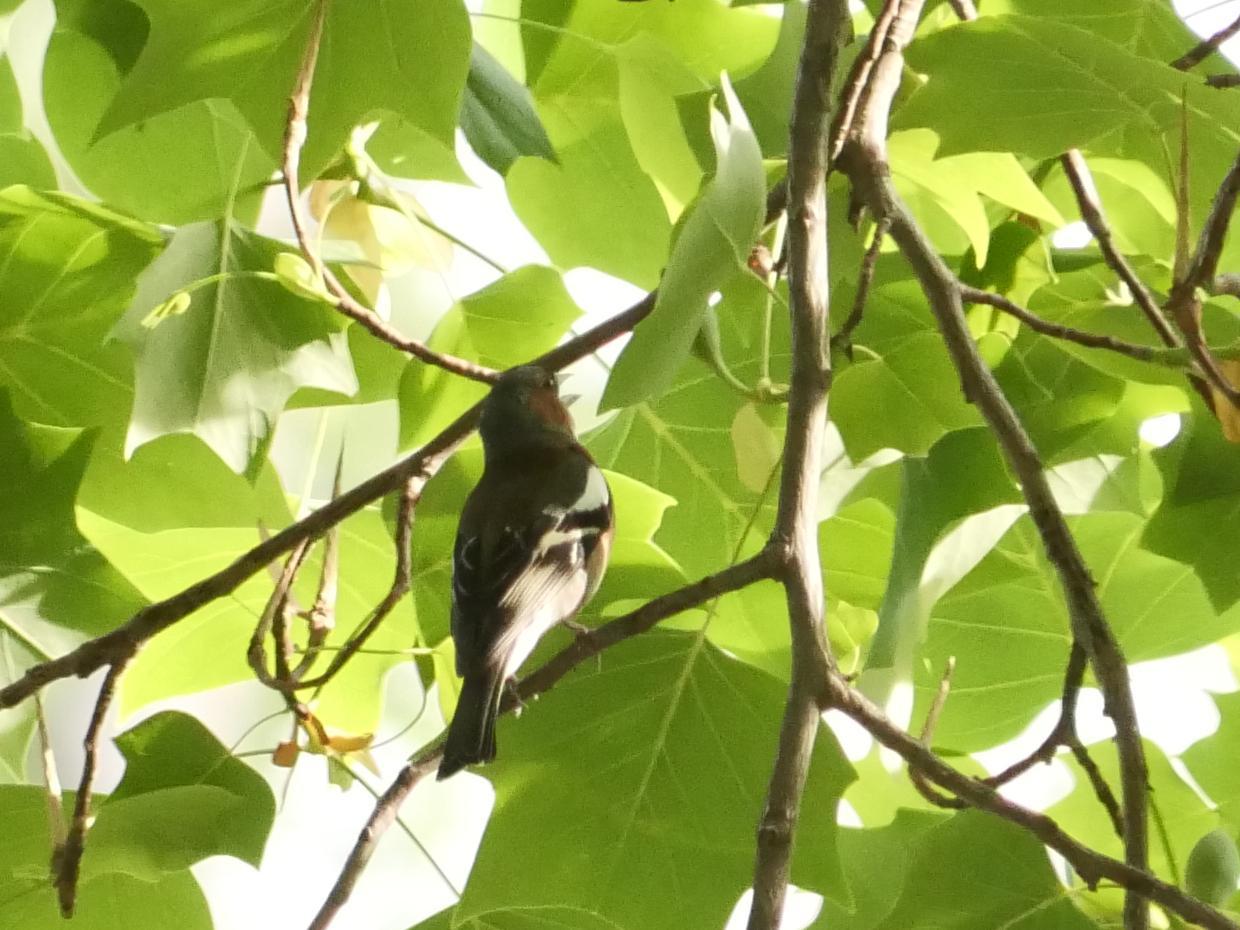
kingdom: Animalia
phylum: Chordata
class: Aves
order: Passeriformes
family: Fringillidae
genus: Fringilla
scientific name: Fringilla coelebs
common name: Common chaffinch
